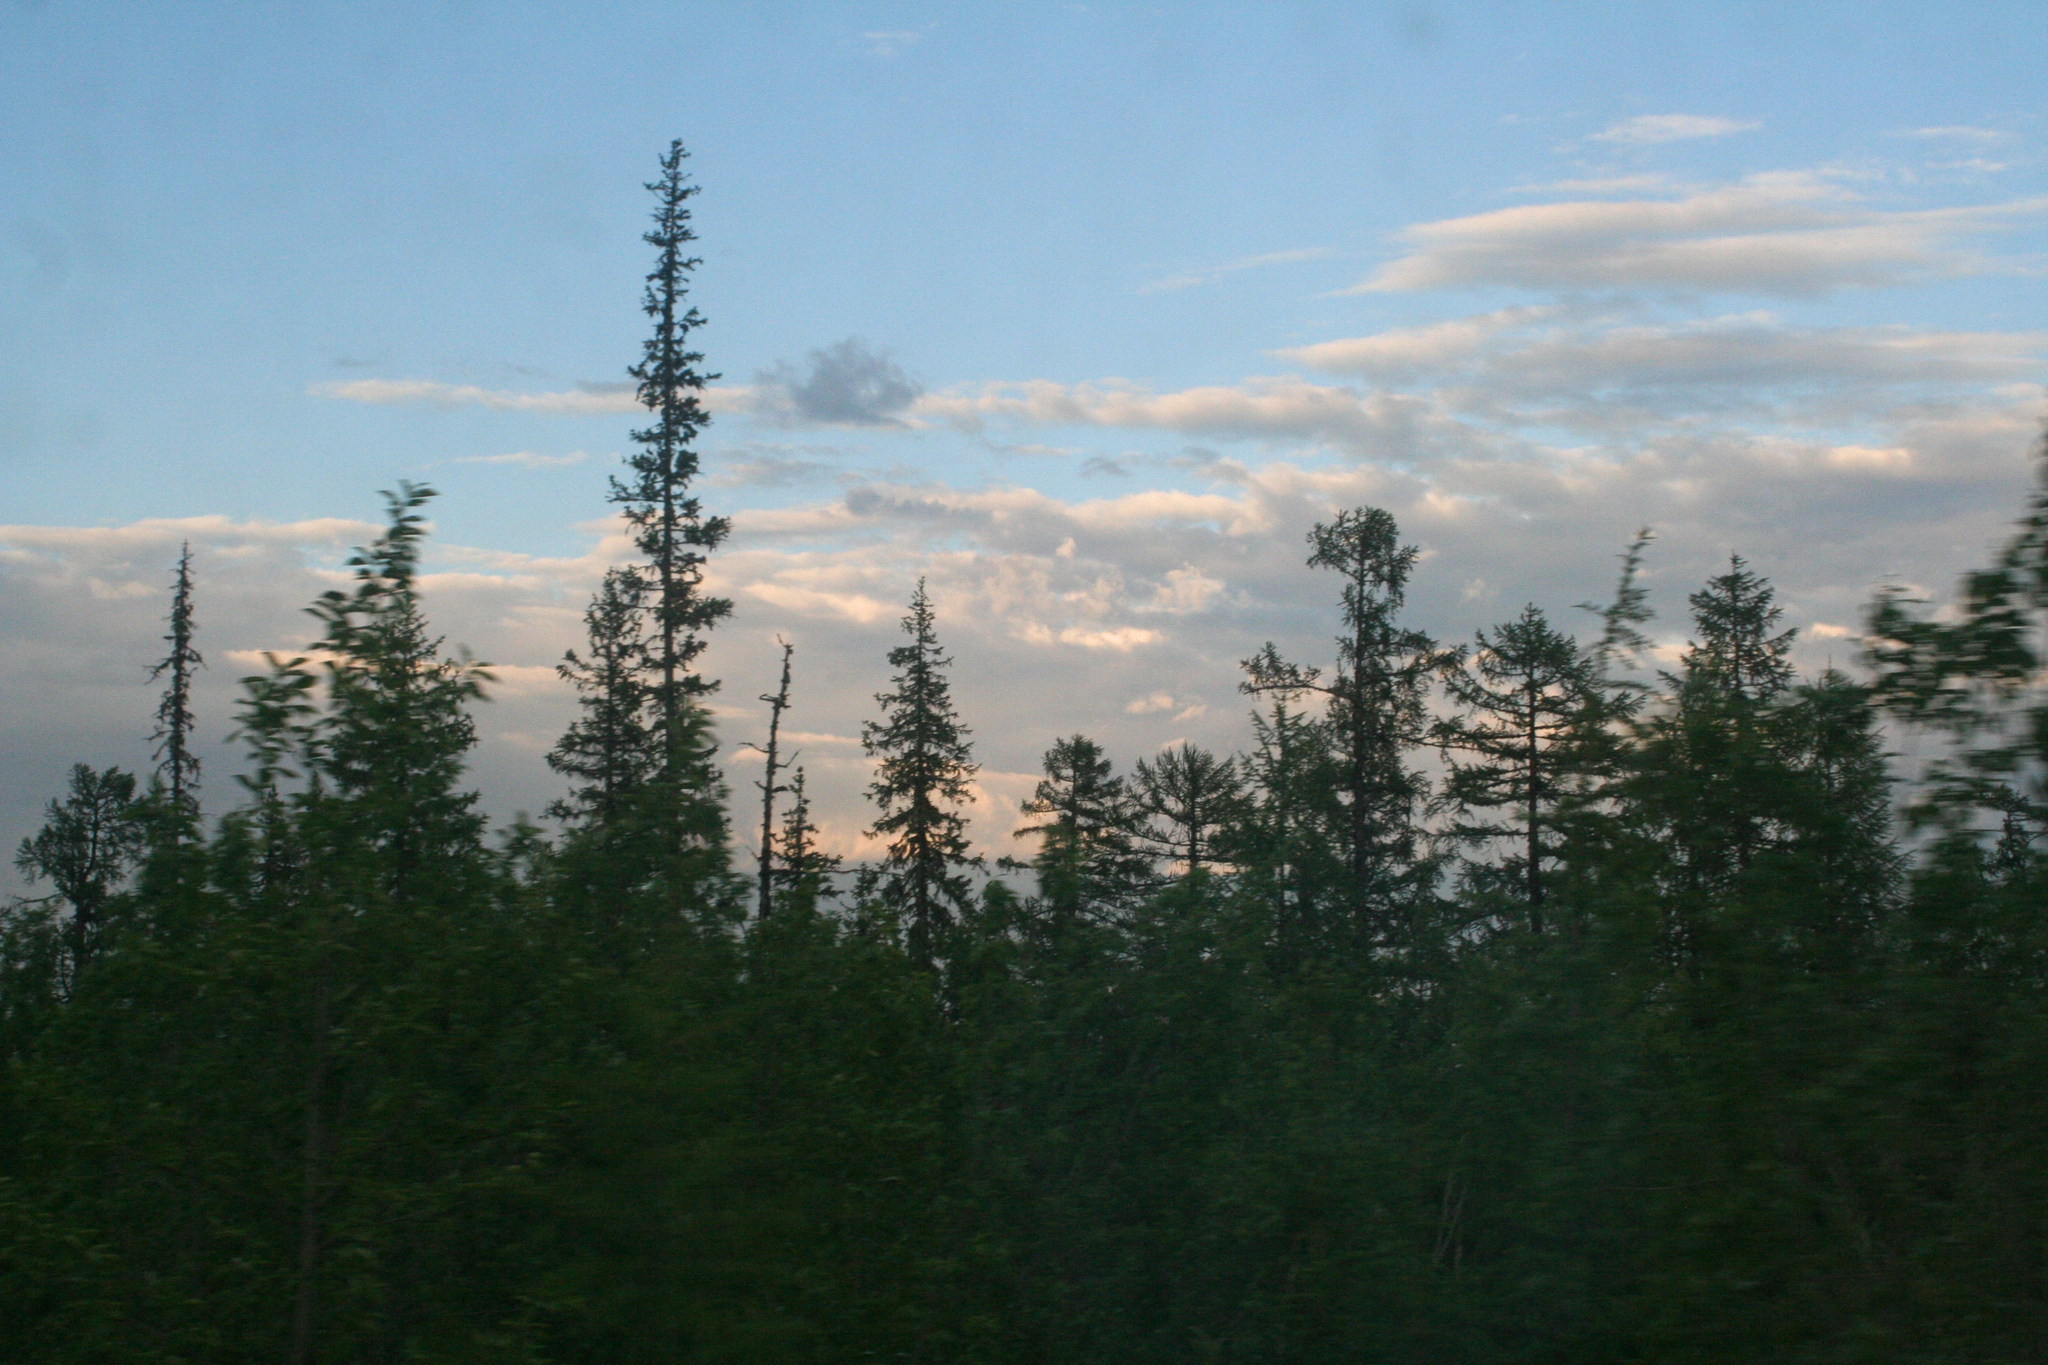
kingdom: Plantae
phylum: Tracheophyta
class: Pinopsida
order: Pinales
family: Pinaceae
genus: Picea
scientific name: Picea obovata
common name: Siberian spruce
